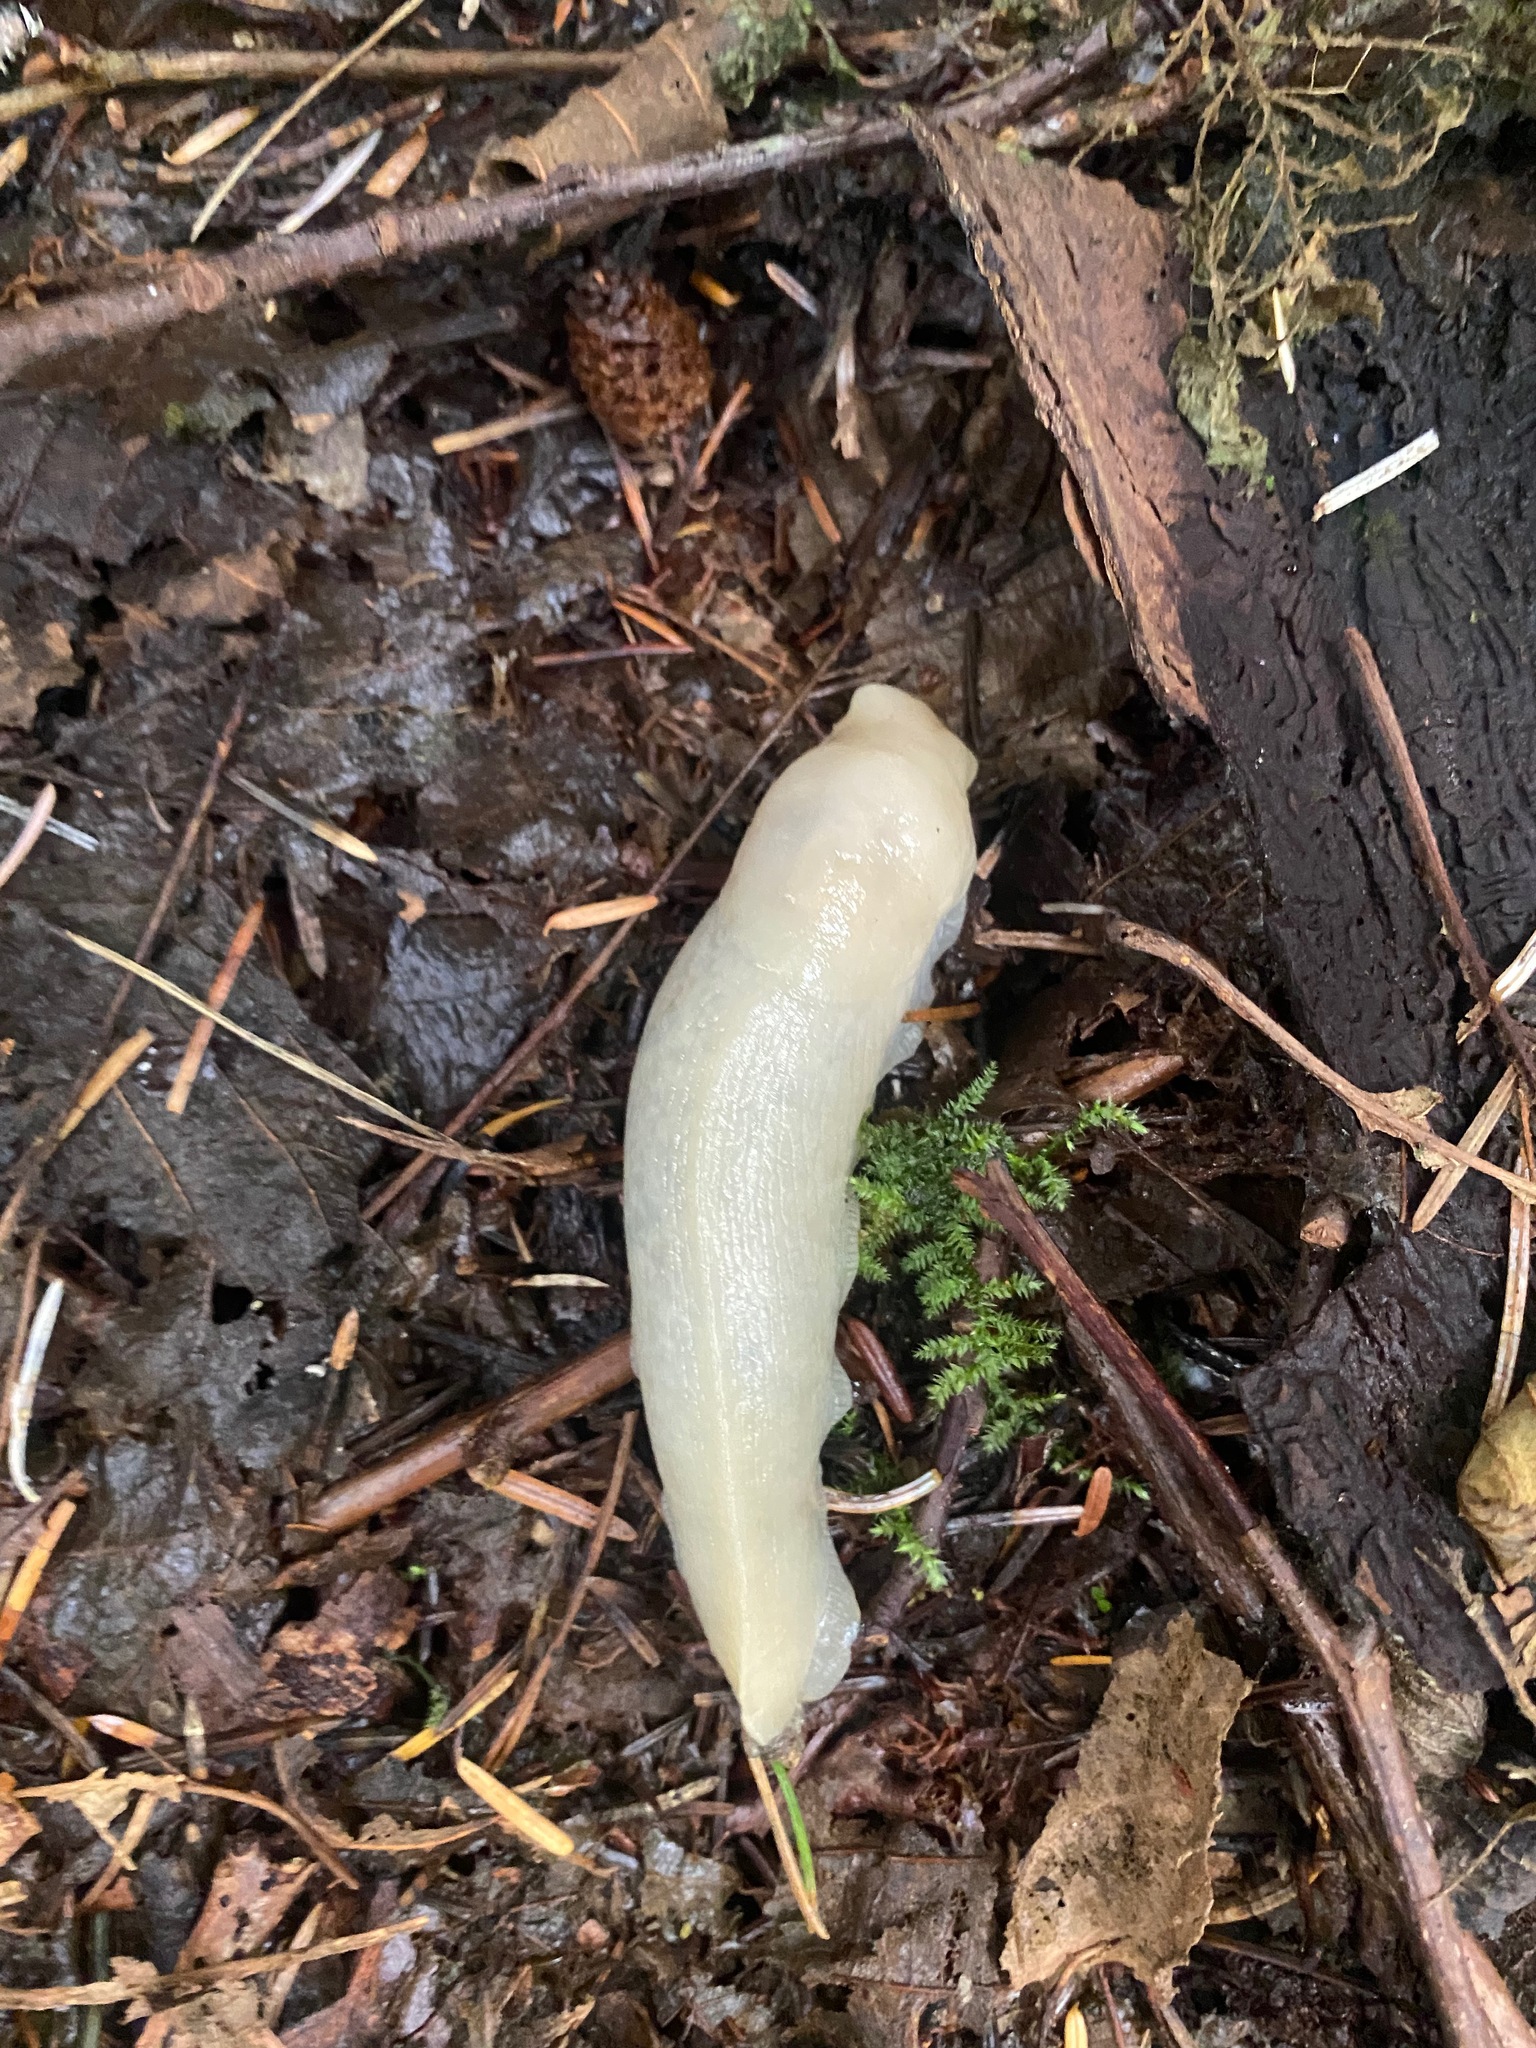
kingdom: Animalia
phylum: Mollusca
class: Gastropoda
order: Stylommatophora
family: Ariolimacidae
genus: Ariolimax
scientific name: Ariolimax columbianus
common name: Pacific banana slug
